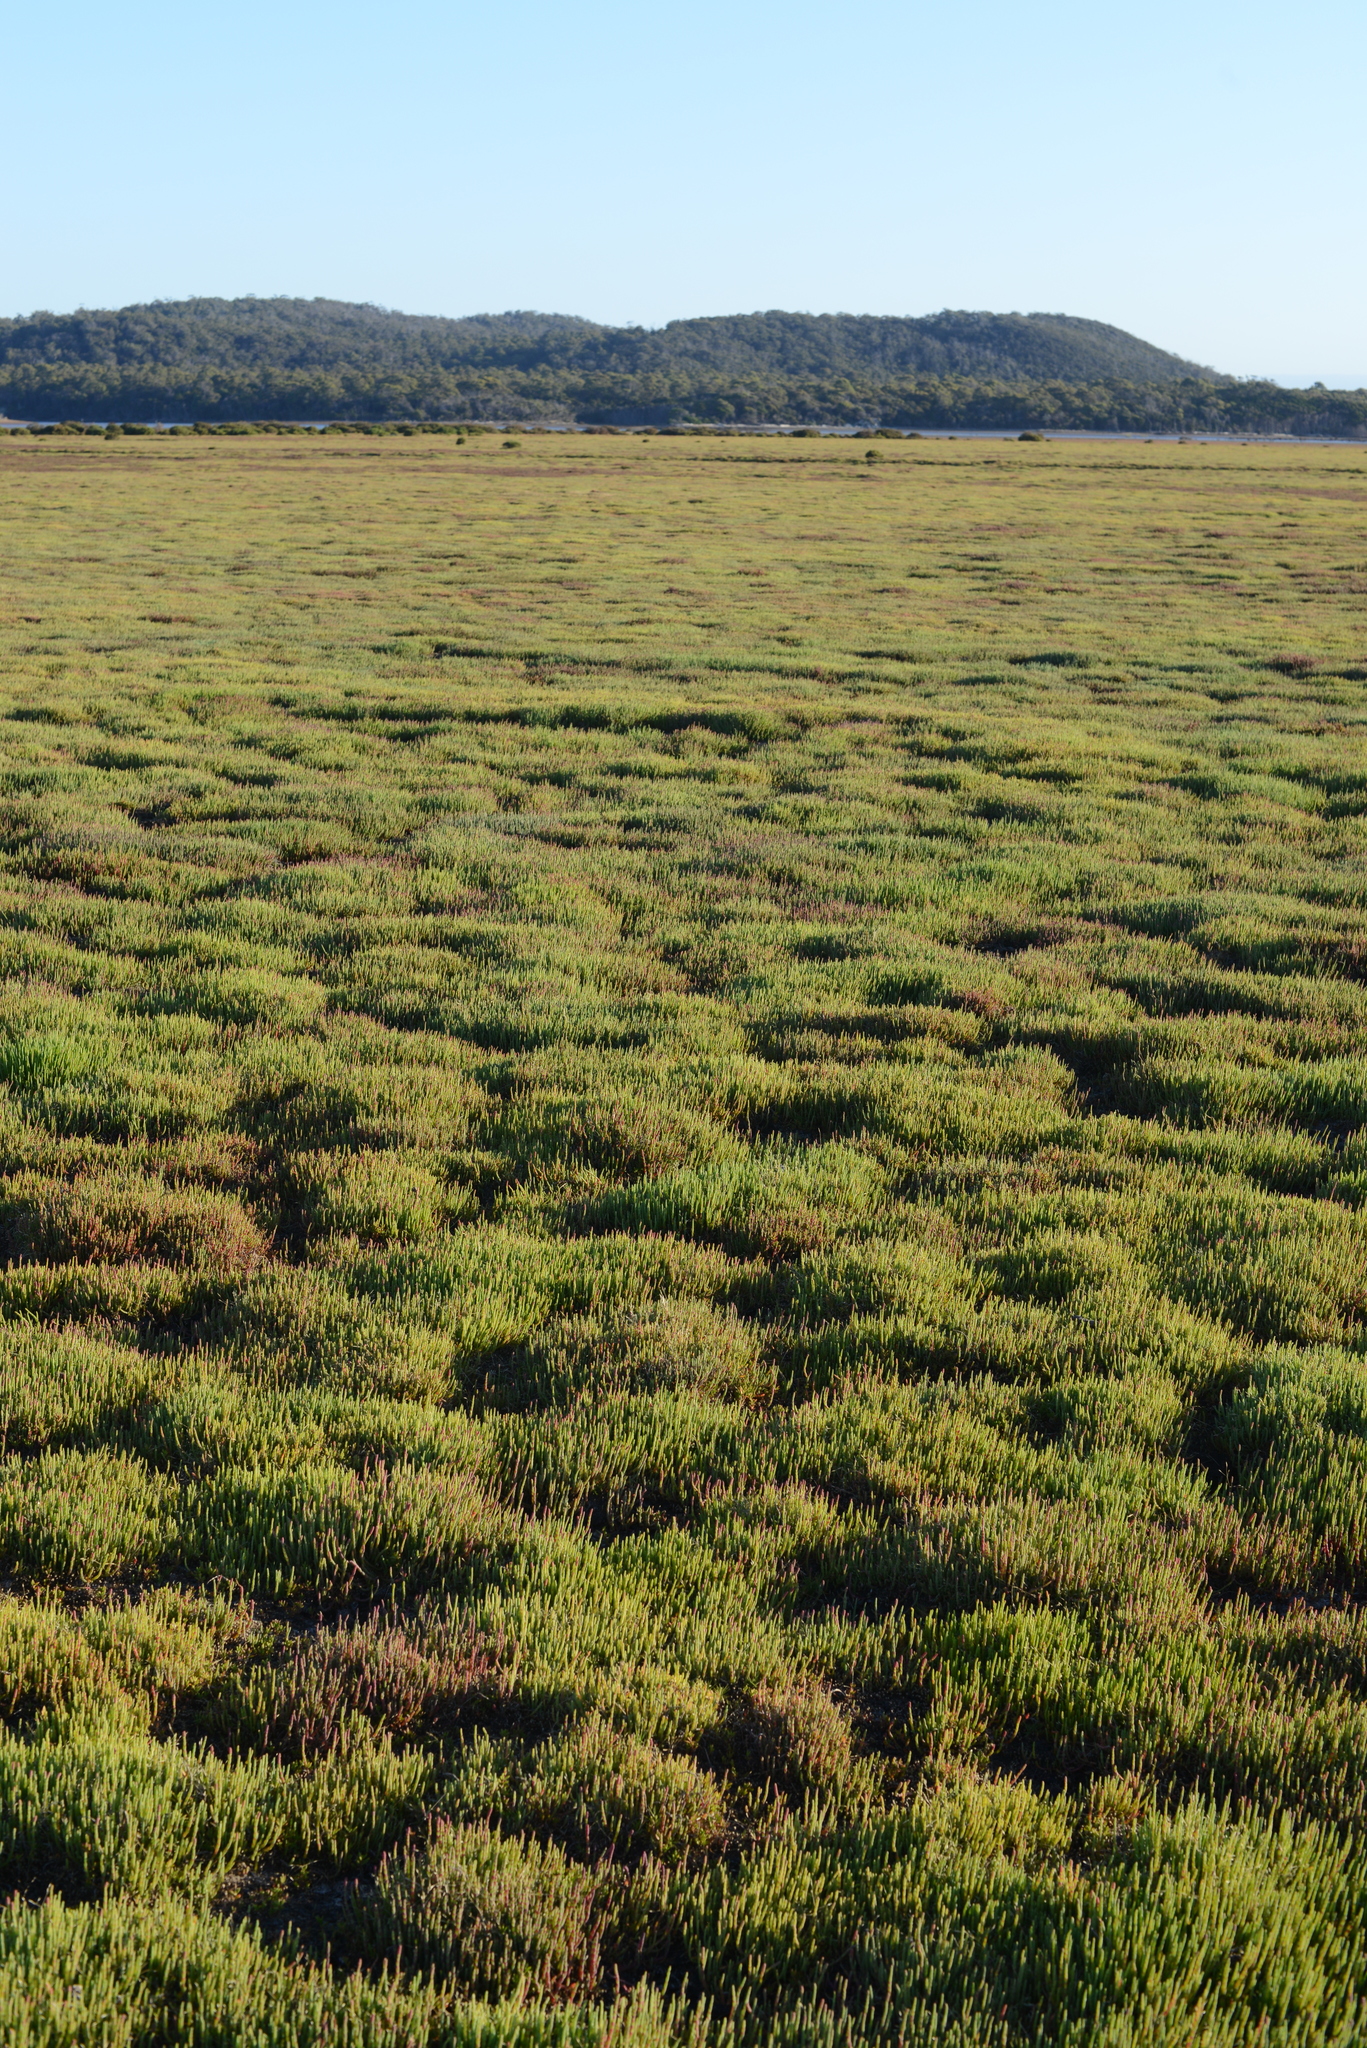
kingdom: Plantae
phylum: Tracheophyta
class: Magnoliopsida
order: Caryophyllales
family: Amaranthaceae
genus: Salicornia
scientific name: Salicornia quinqueflora
